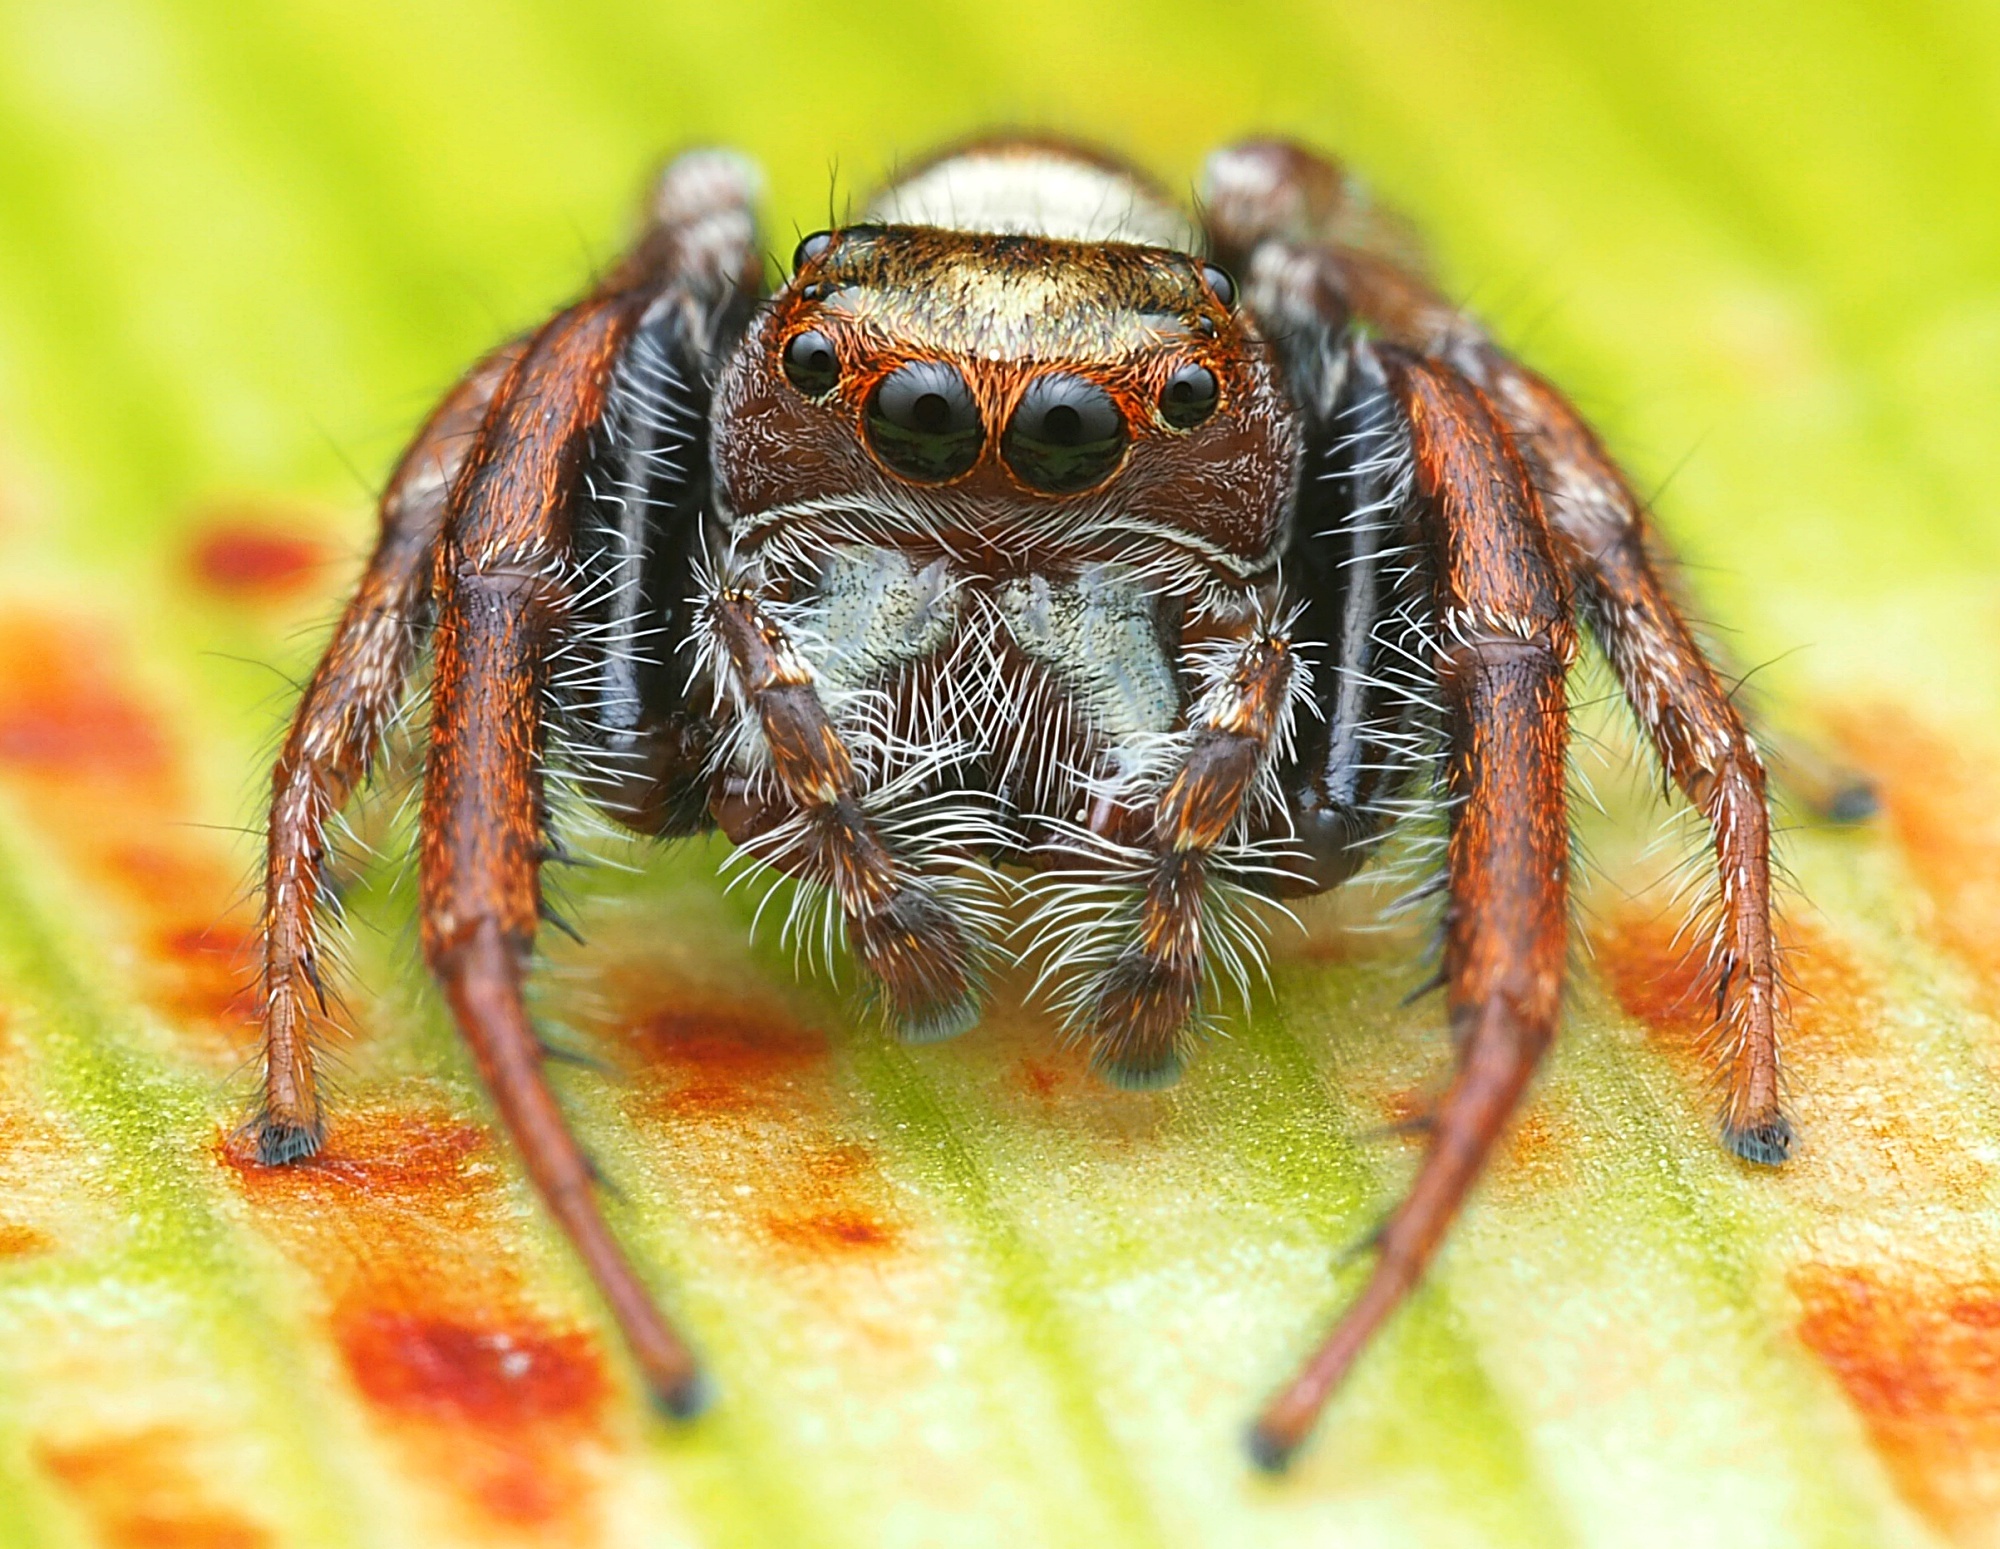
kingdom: Animalia
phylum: Arthropoda
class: Arachnida
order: Araneae
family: Salticidae
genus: Opisthoncus
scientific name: Opisthoncus polyphemus
